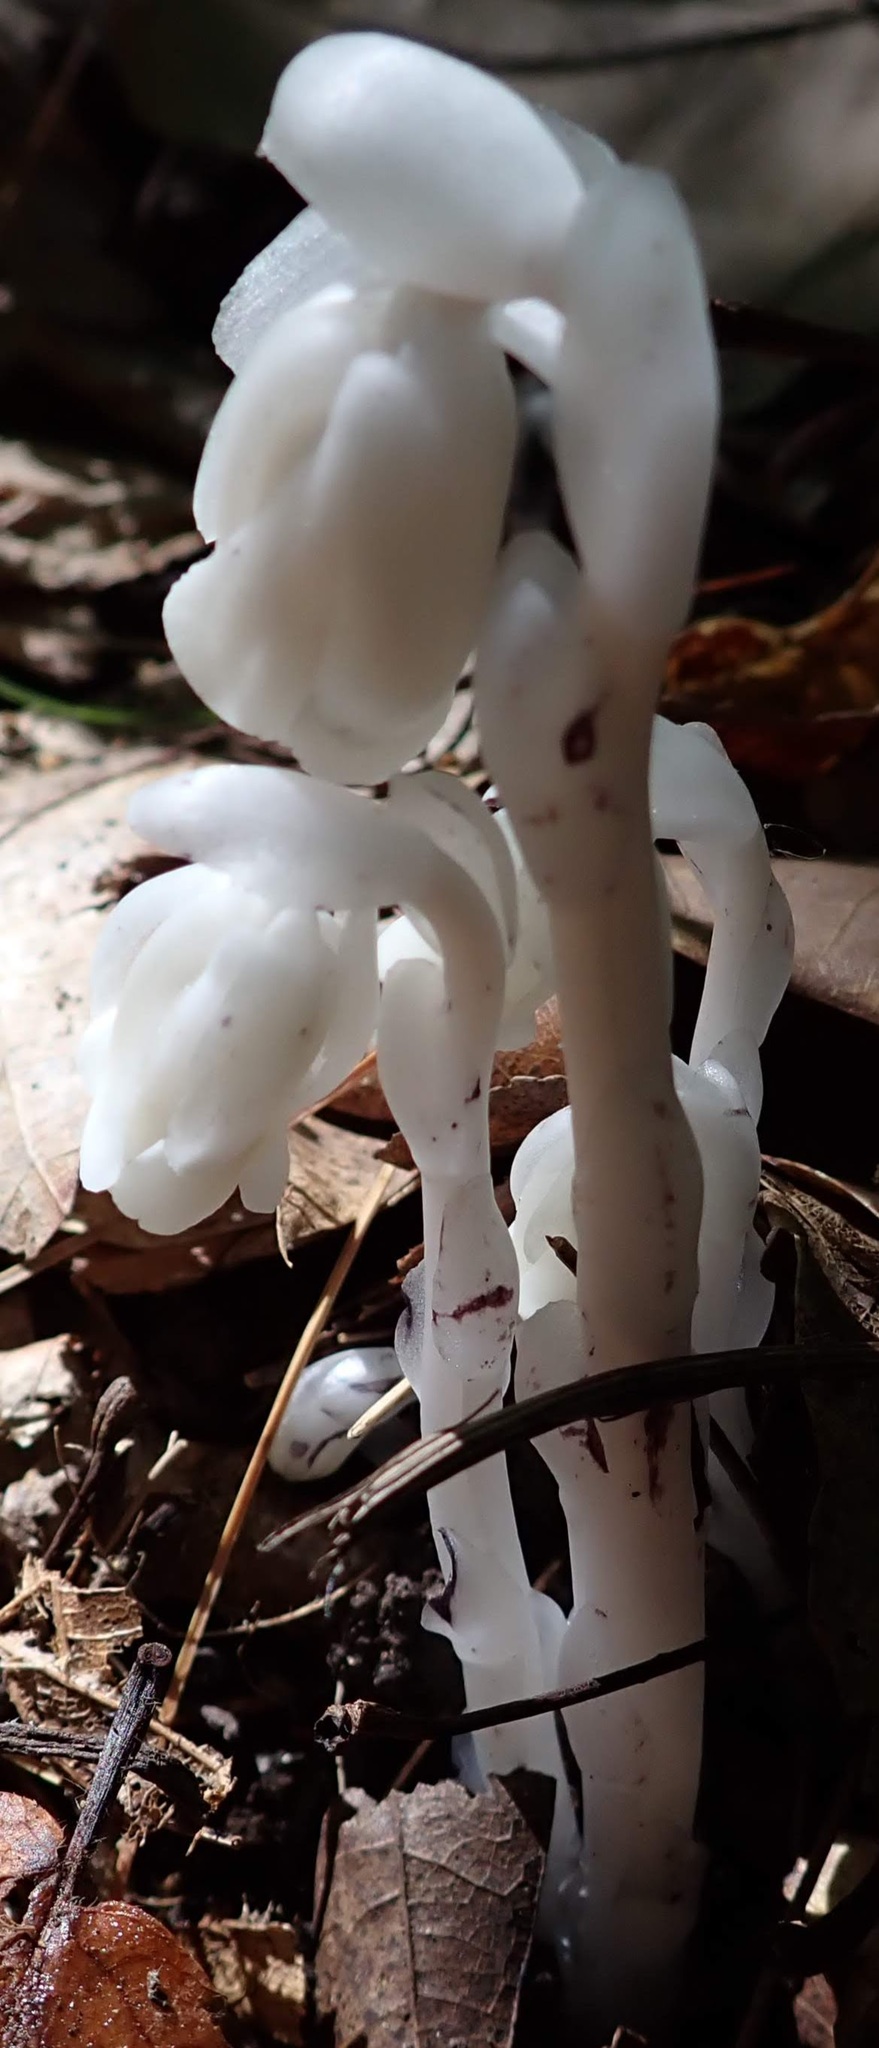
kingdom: Plantae
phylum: Tracheophyta
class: Magnoliopsida
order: Ericales
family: Ericaceae
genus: Monotropa
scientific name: Monotropa uniflora
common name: Convulsion root
